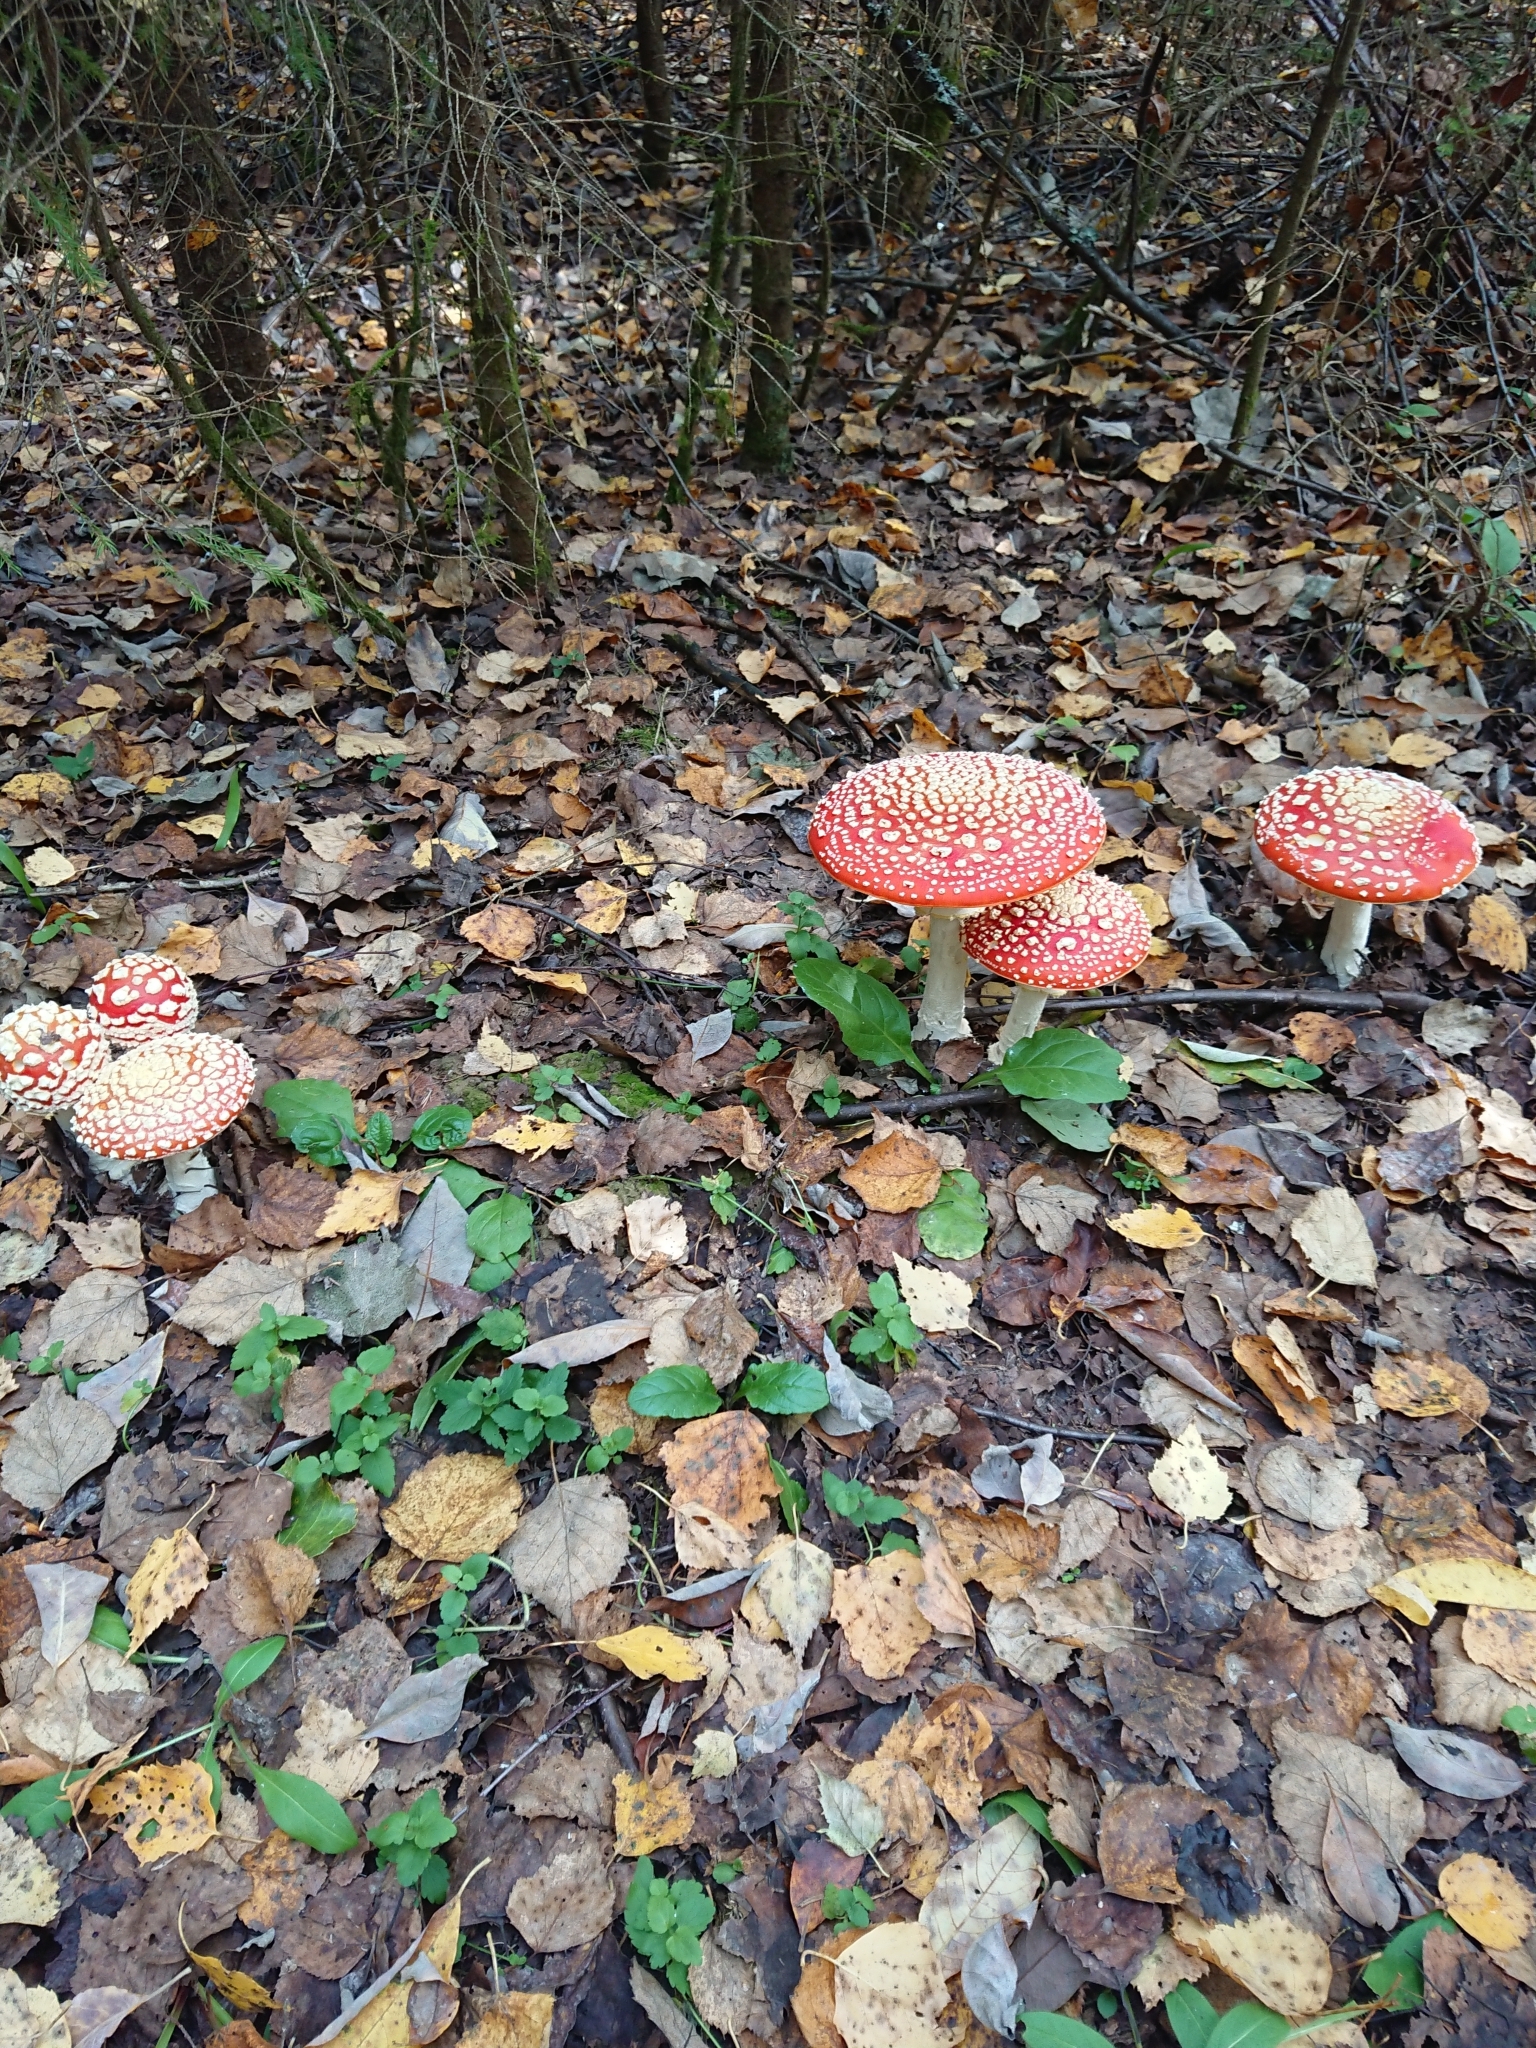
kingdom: Fungi
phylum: Basidiomycota
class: Agaricomycetes
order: Agaricales
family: Amanitaceae
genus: Amanita
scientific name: Amanita muscaria
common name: Fly agaric
